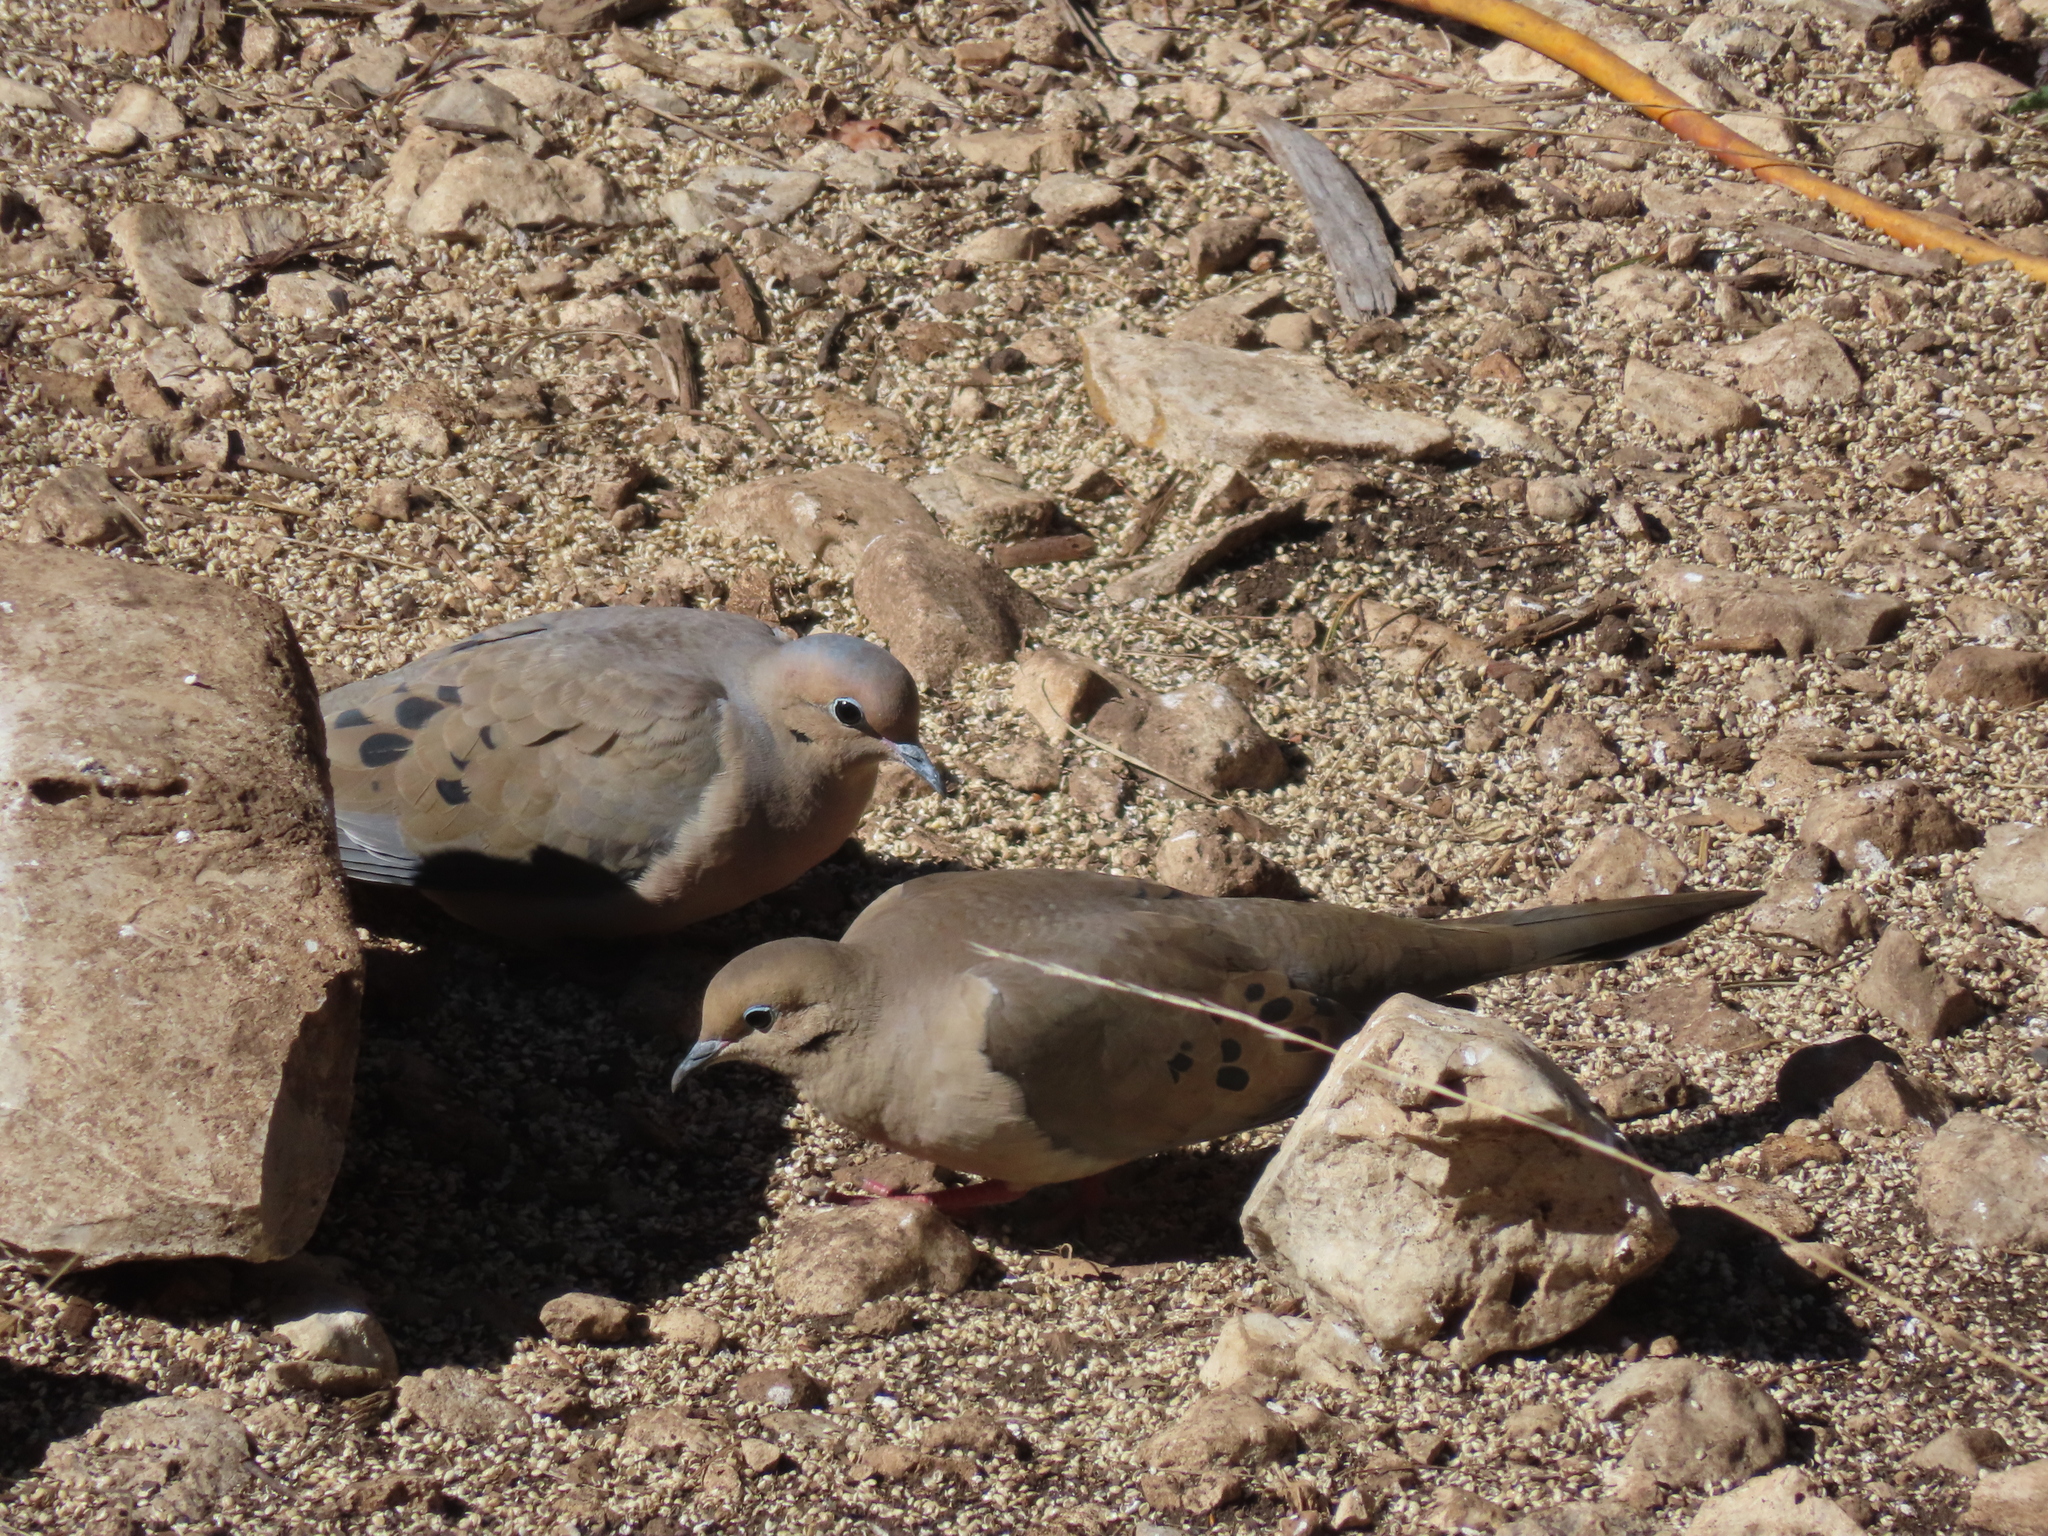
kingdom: Animalia
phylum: Chordata
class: Aves
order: Columbiformes
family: Columbidae
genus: Zenaida
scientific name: Zenaida macroura
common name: Mourning dove
